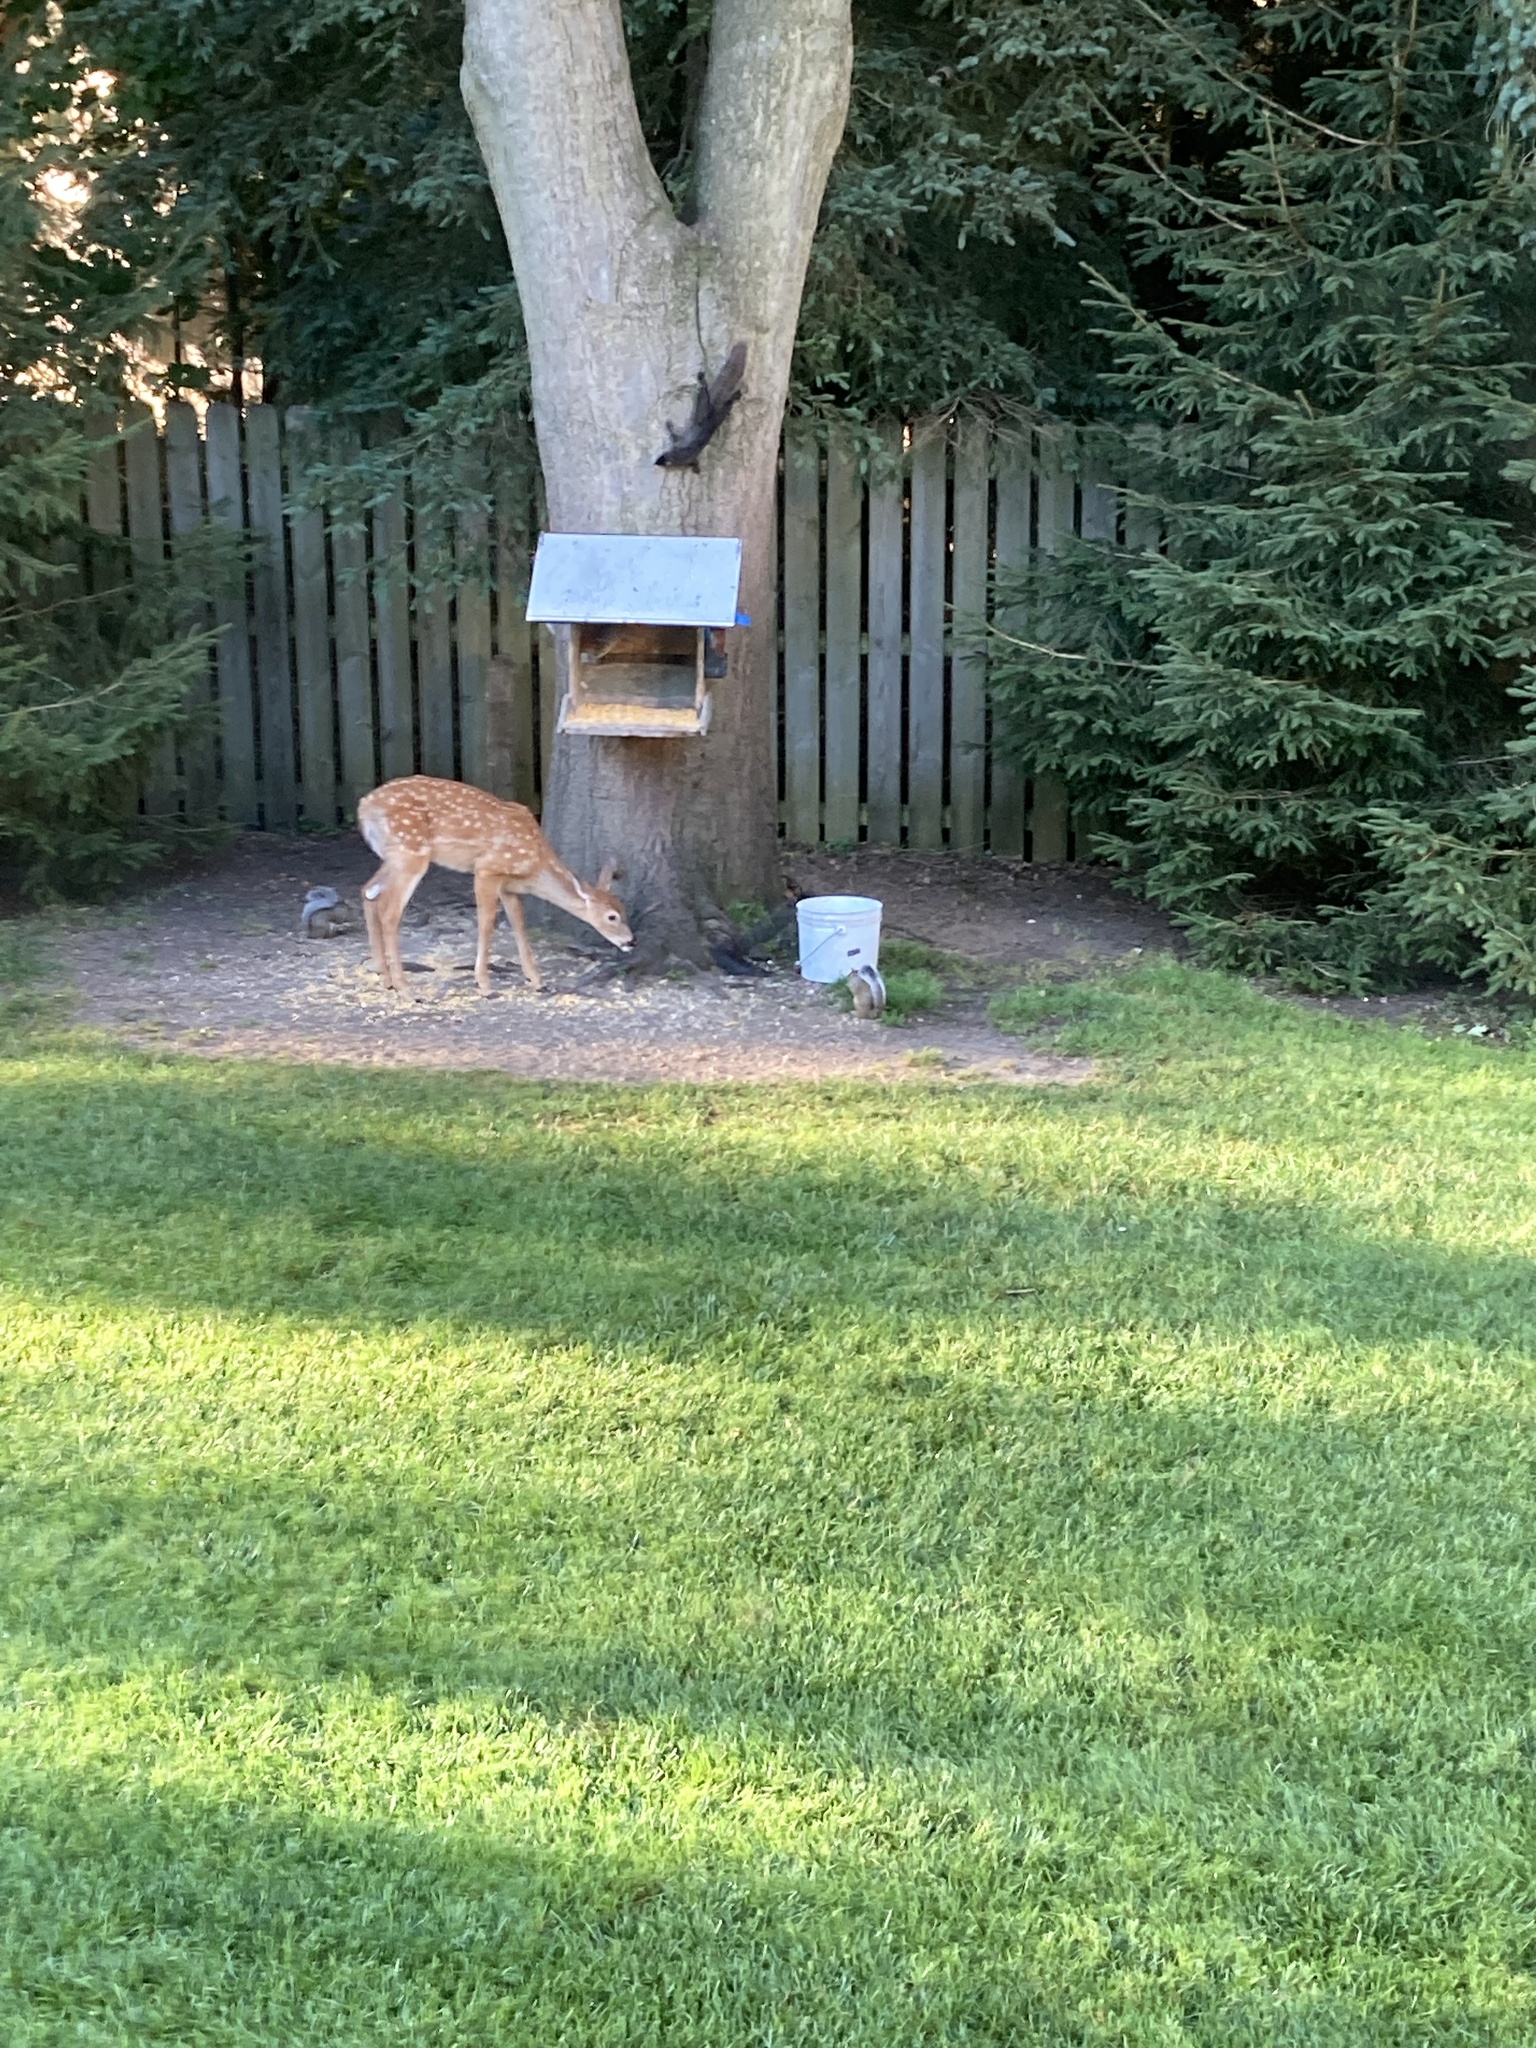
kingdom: Animalia
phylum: Chordata
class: Mammalia
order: Artiodactyla
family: Cervidae
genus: Odocoileus
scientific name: Odocoileus virginianus
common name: White-tailed deer
